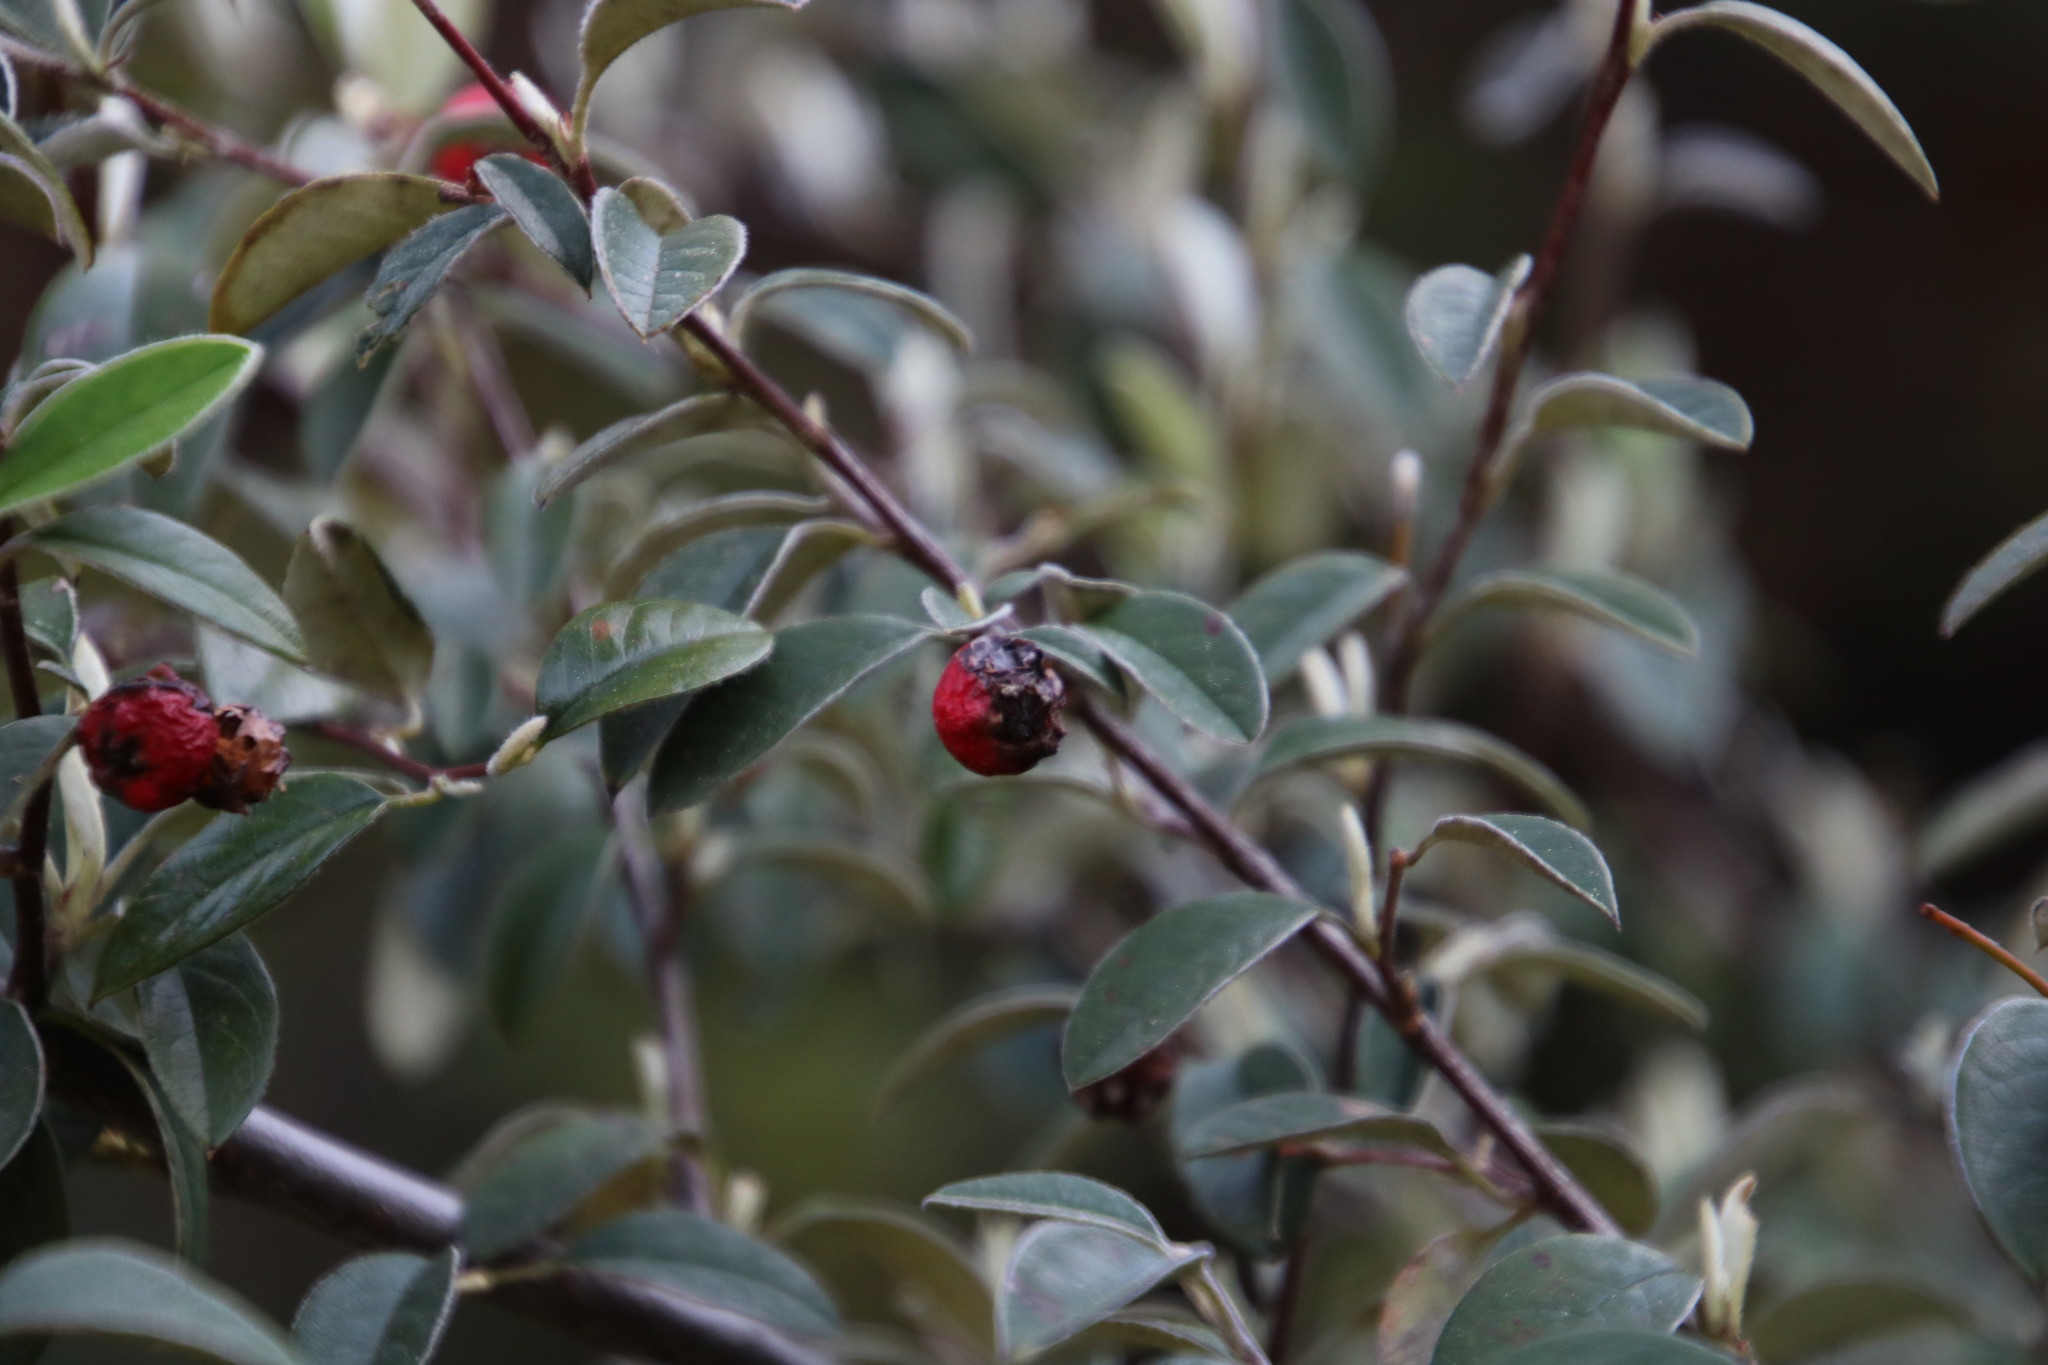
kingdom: Plantae
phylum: Tracheophyta
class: Magnoliopsida
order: Rosales
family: Rosaceae
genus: Cotoneaster
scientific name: Cotoneaster pannosus
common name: Silverleaf cotoneaster
